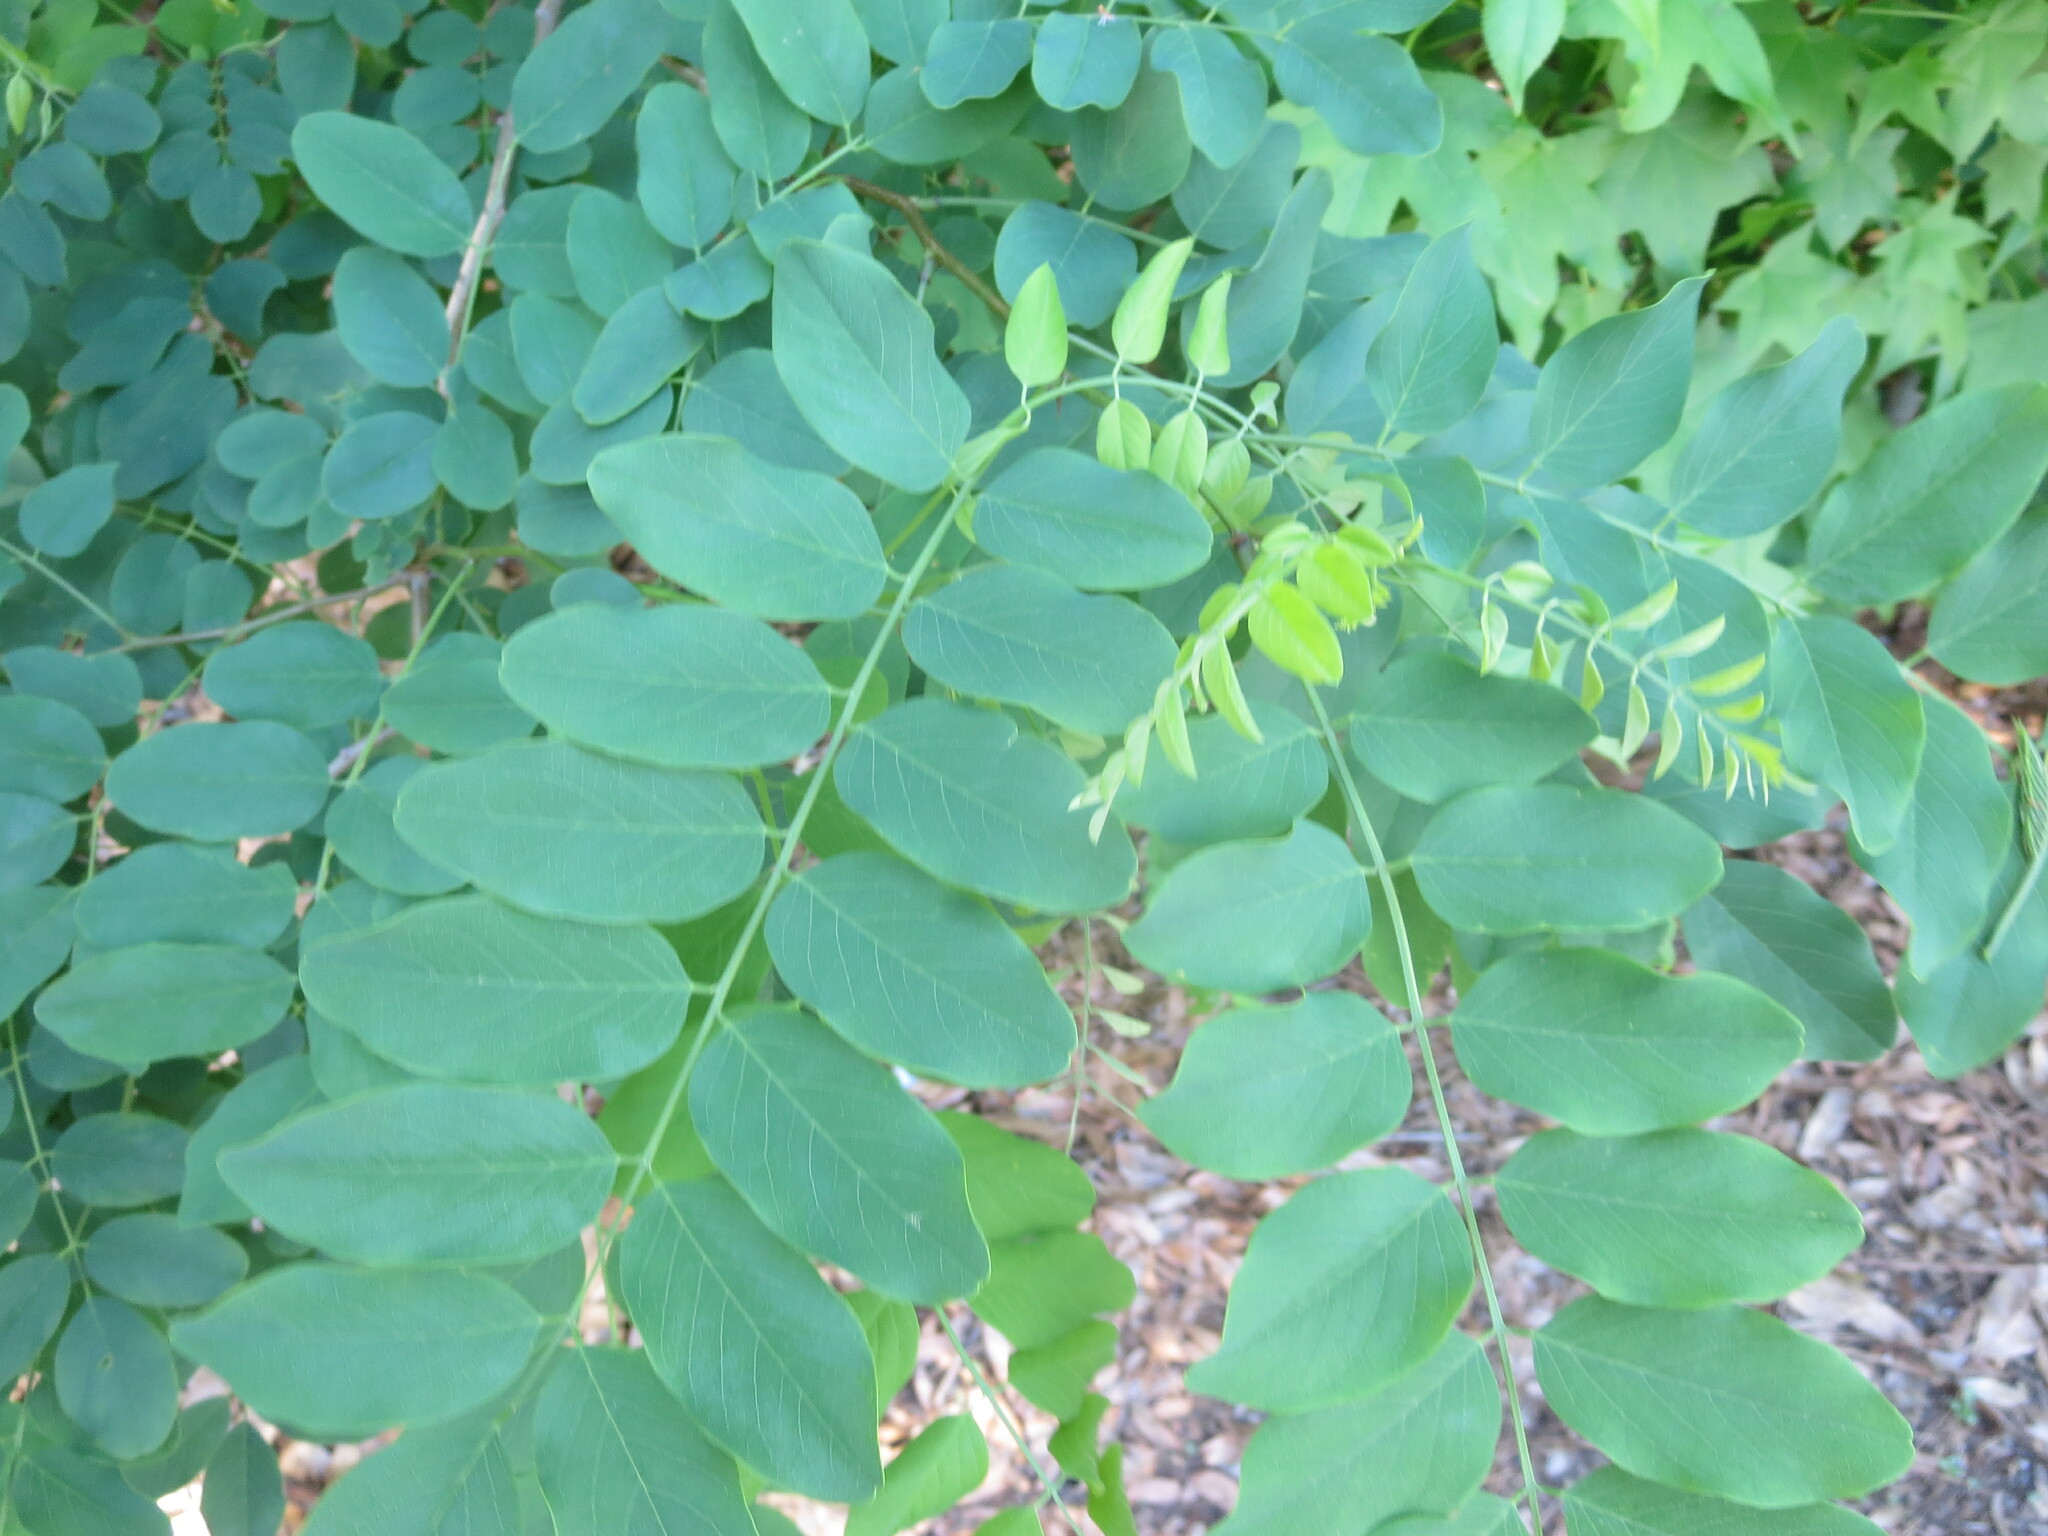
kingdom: Plantae
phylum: Tracheophyta
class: Magnoliopsida
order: Fabales
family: Fabaceae
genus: Robinia
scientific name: Robinia pseudoacacia
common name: Black locust
